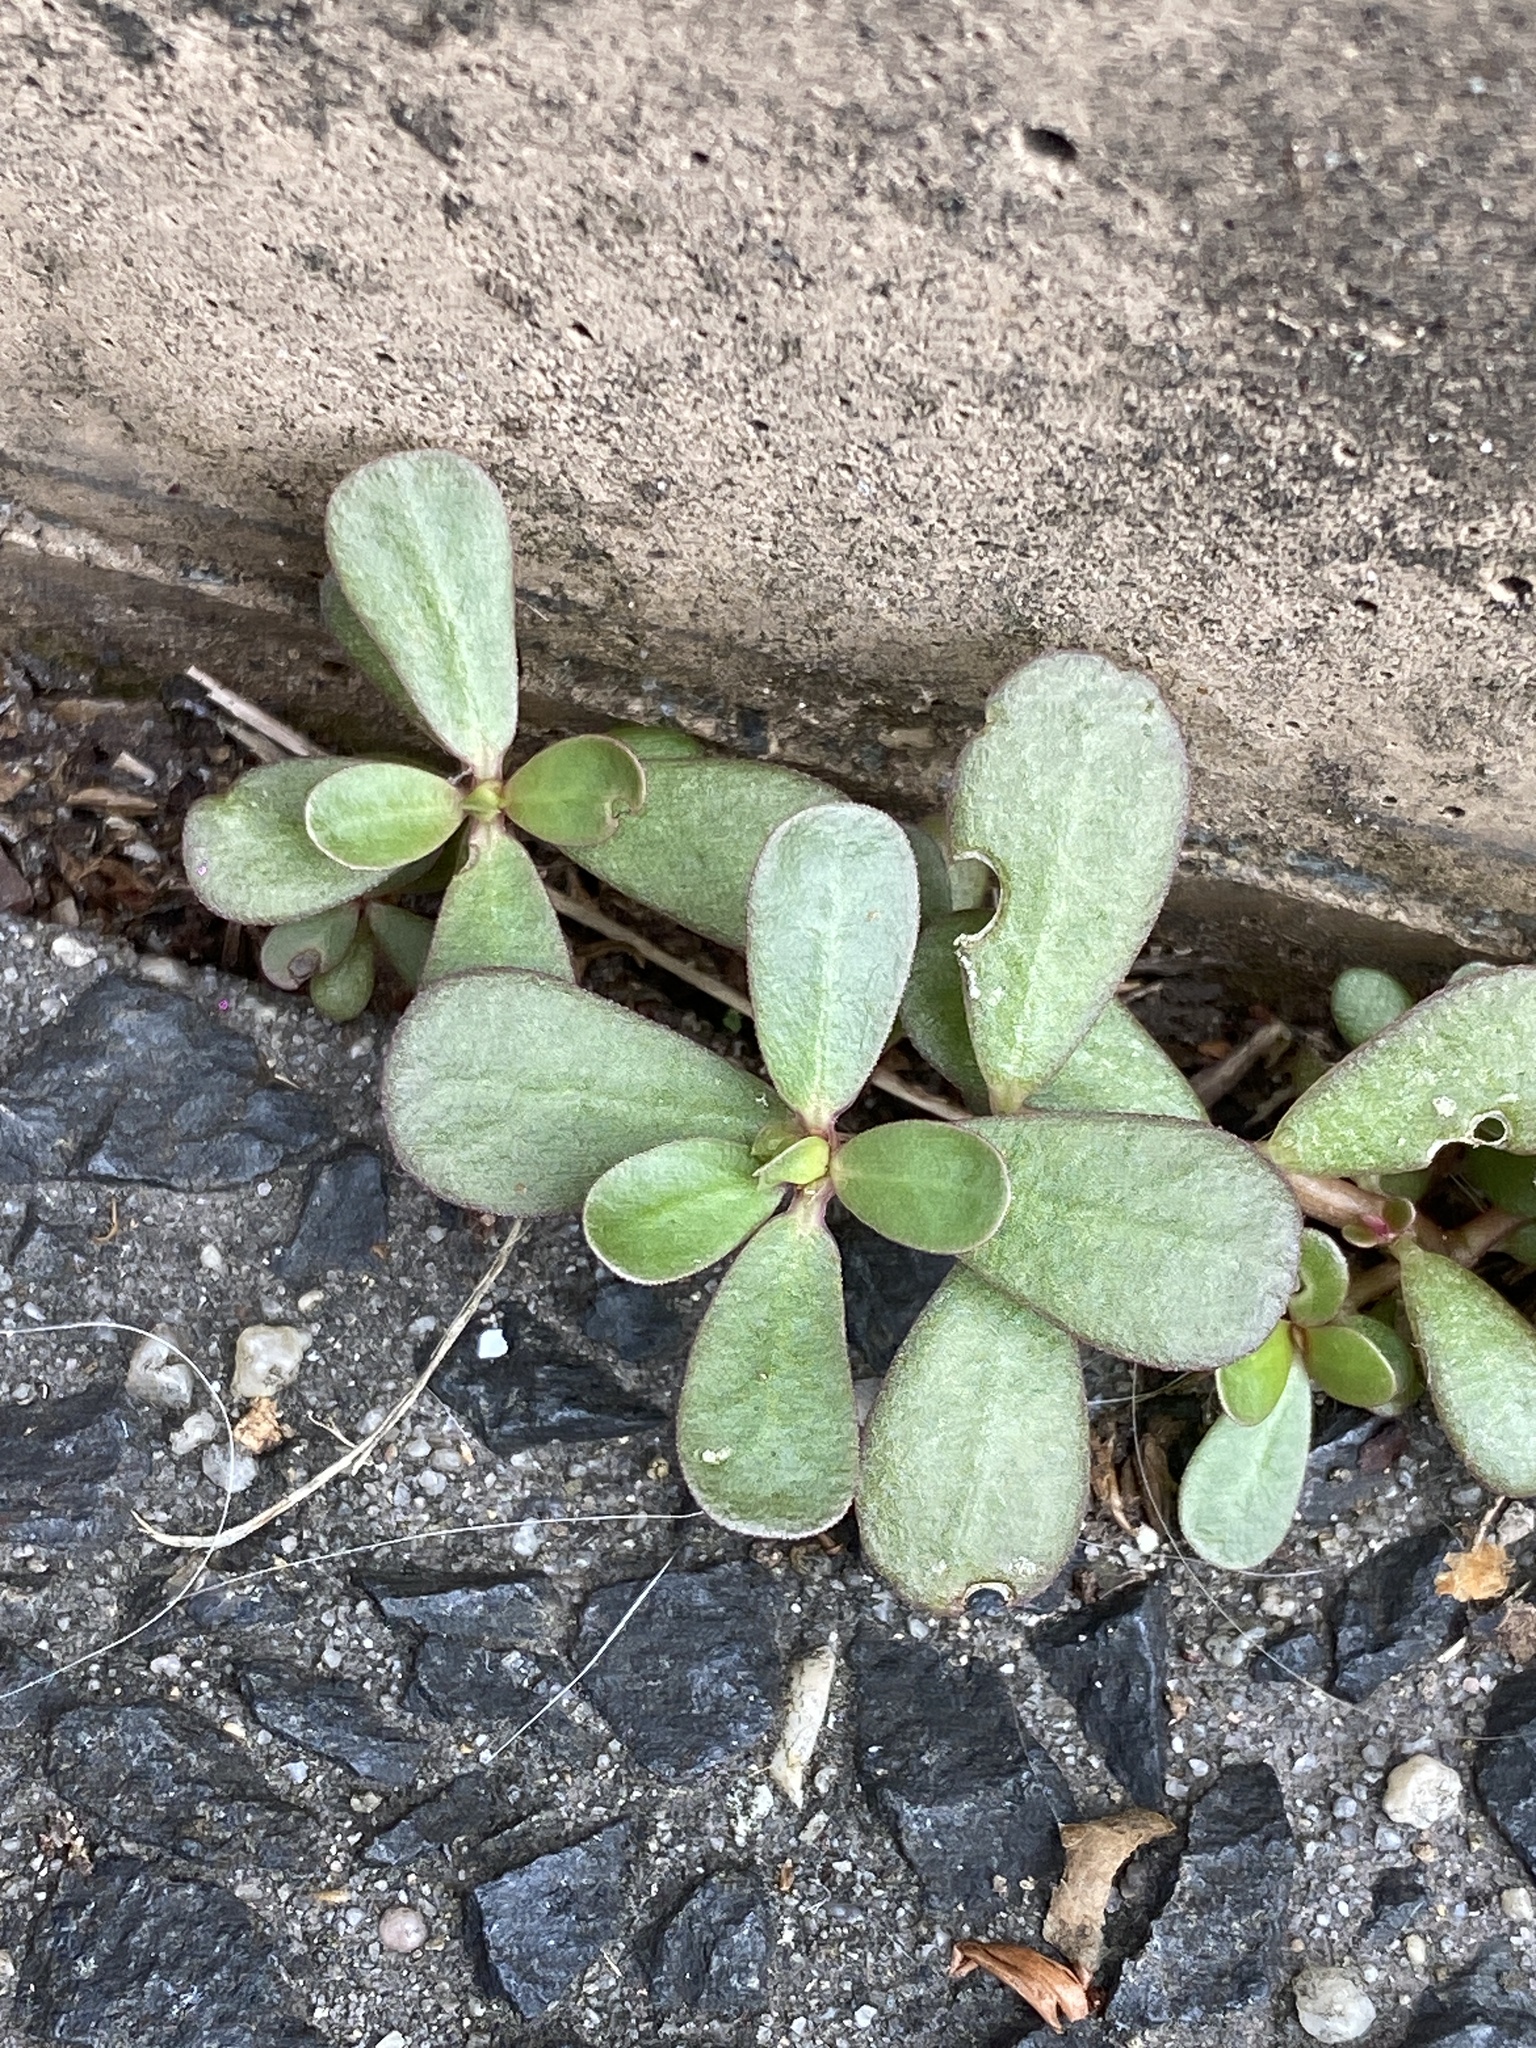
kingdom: Plantae
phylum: Tracheophyta
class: Magnoliopsida
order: Caryophyllales
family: Portulacaceae
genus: Portulaca
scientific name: Portulaca oleracea
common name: Common purslane
